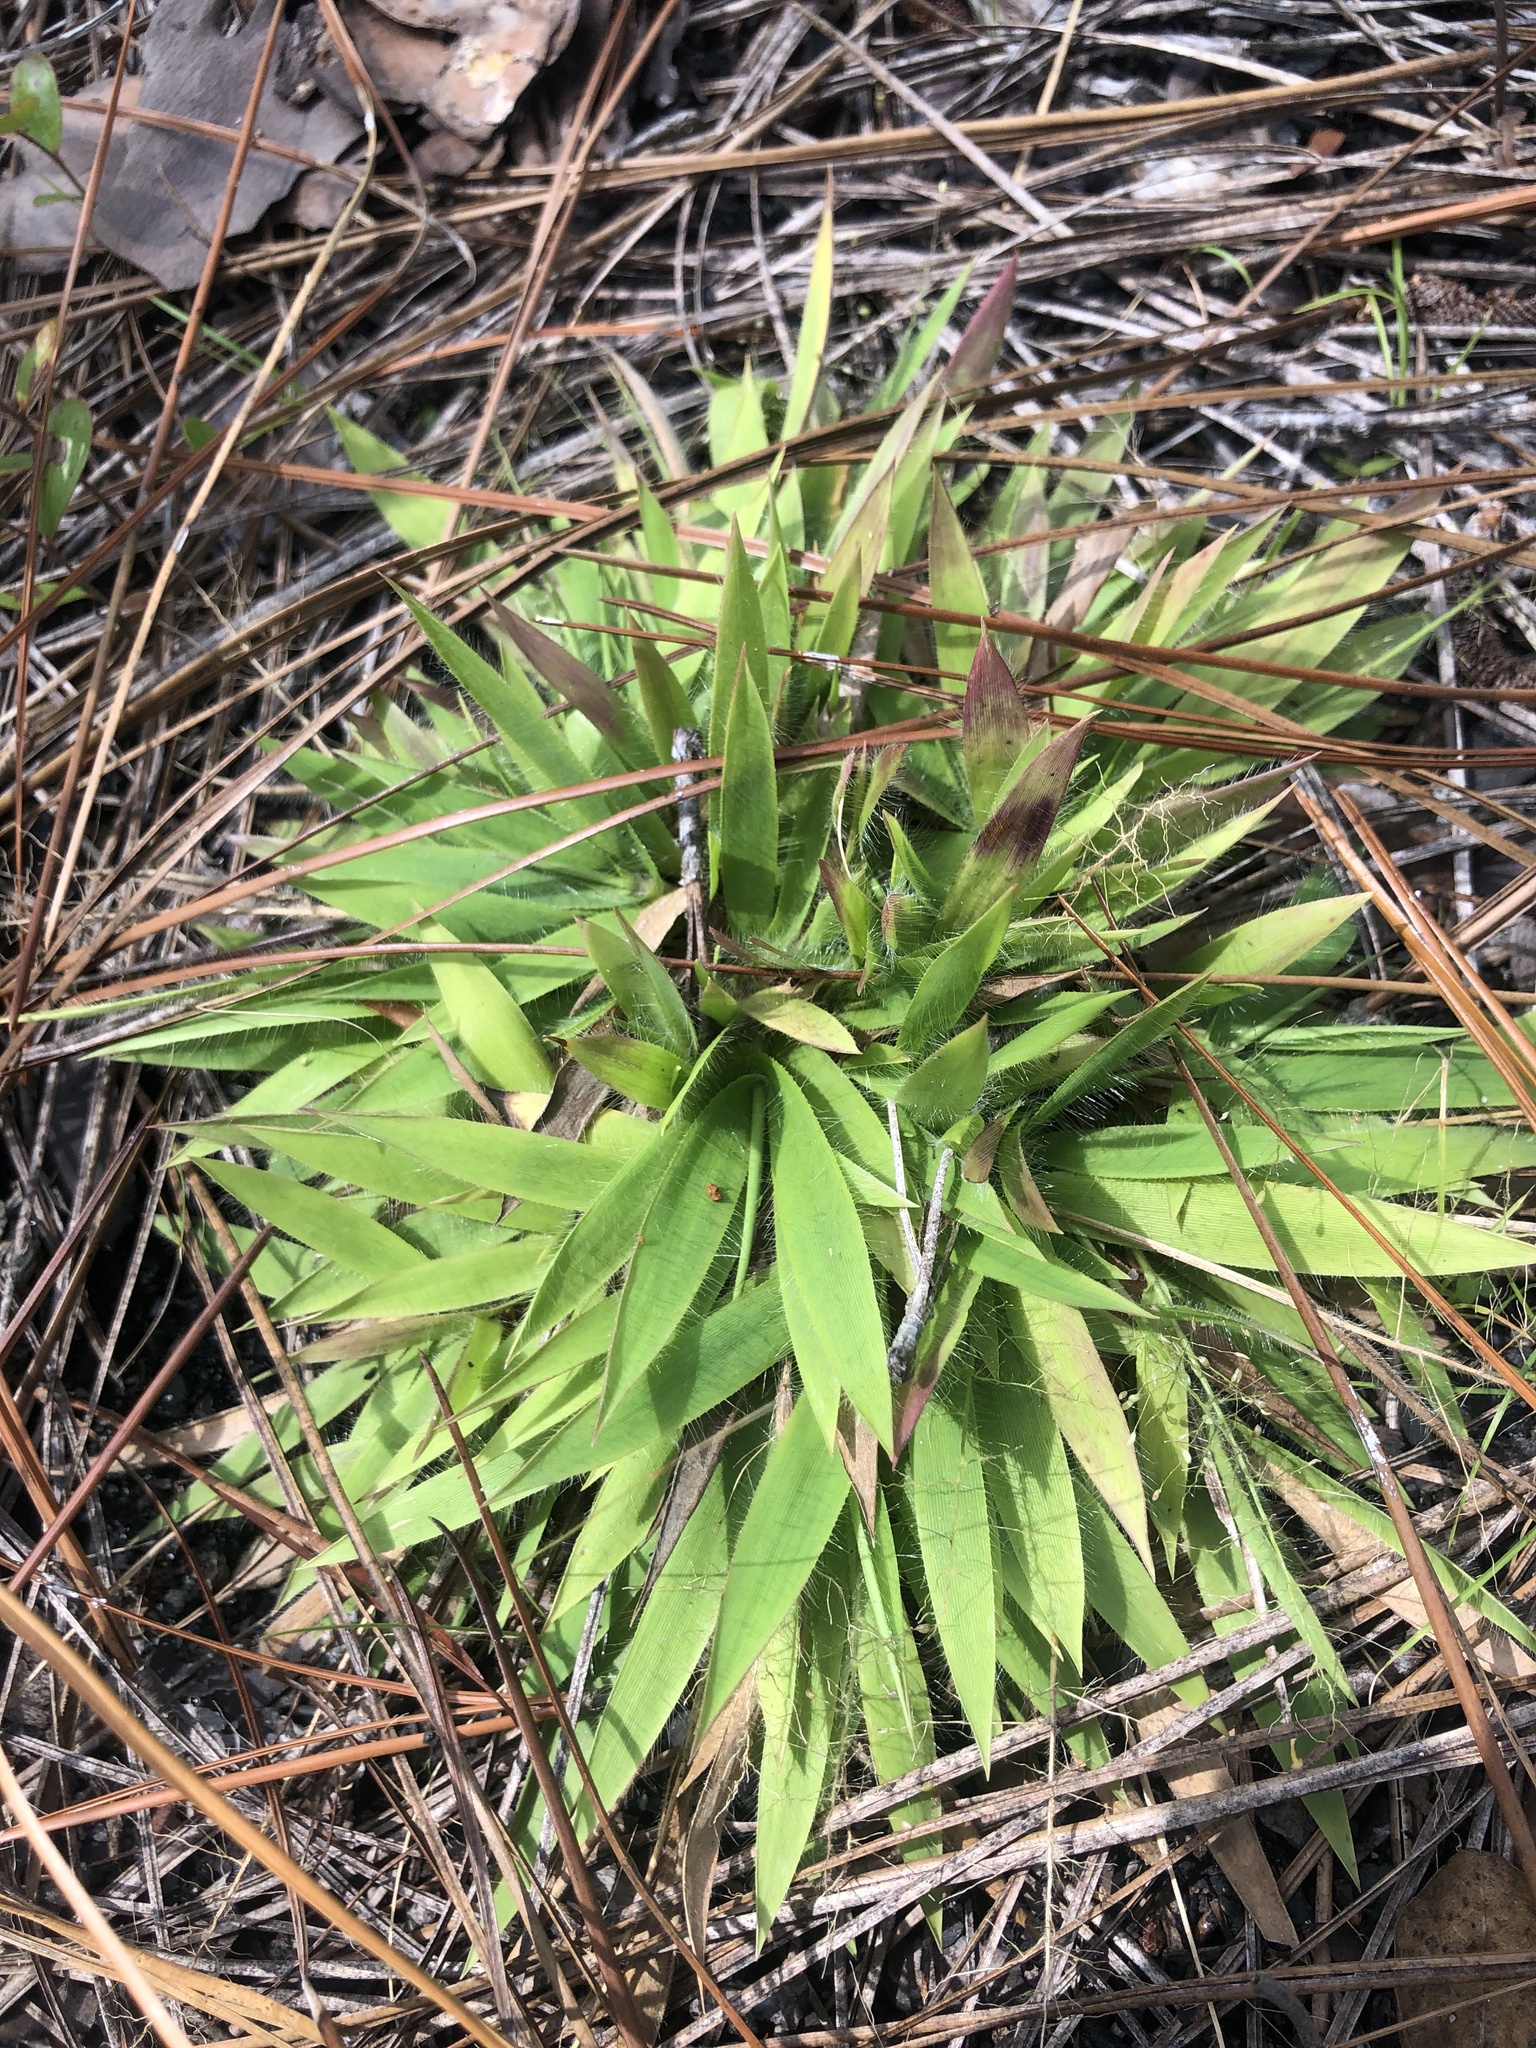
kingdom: Plantae
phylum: Tracheophyta
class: Liliopsida
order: Poales
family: Poaceae
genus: Dichanthelium
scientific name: Dichanthelium strigosum
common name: Cushion-tuft panic grass
